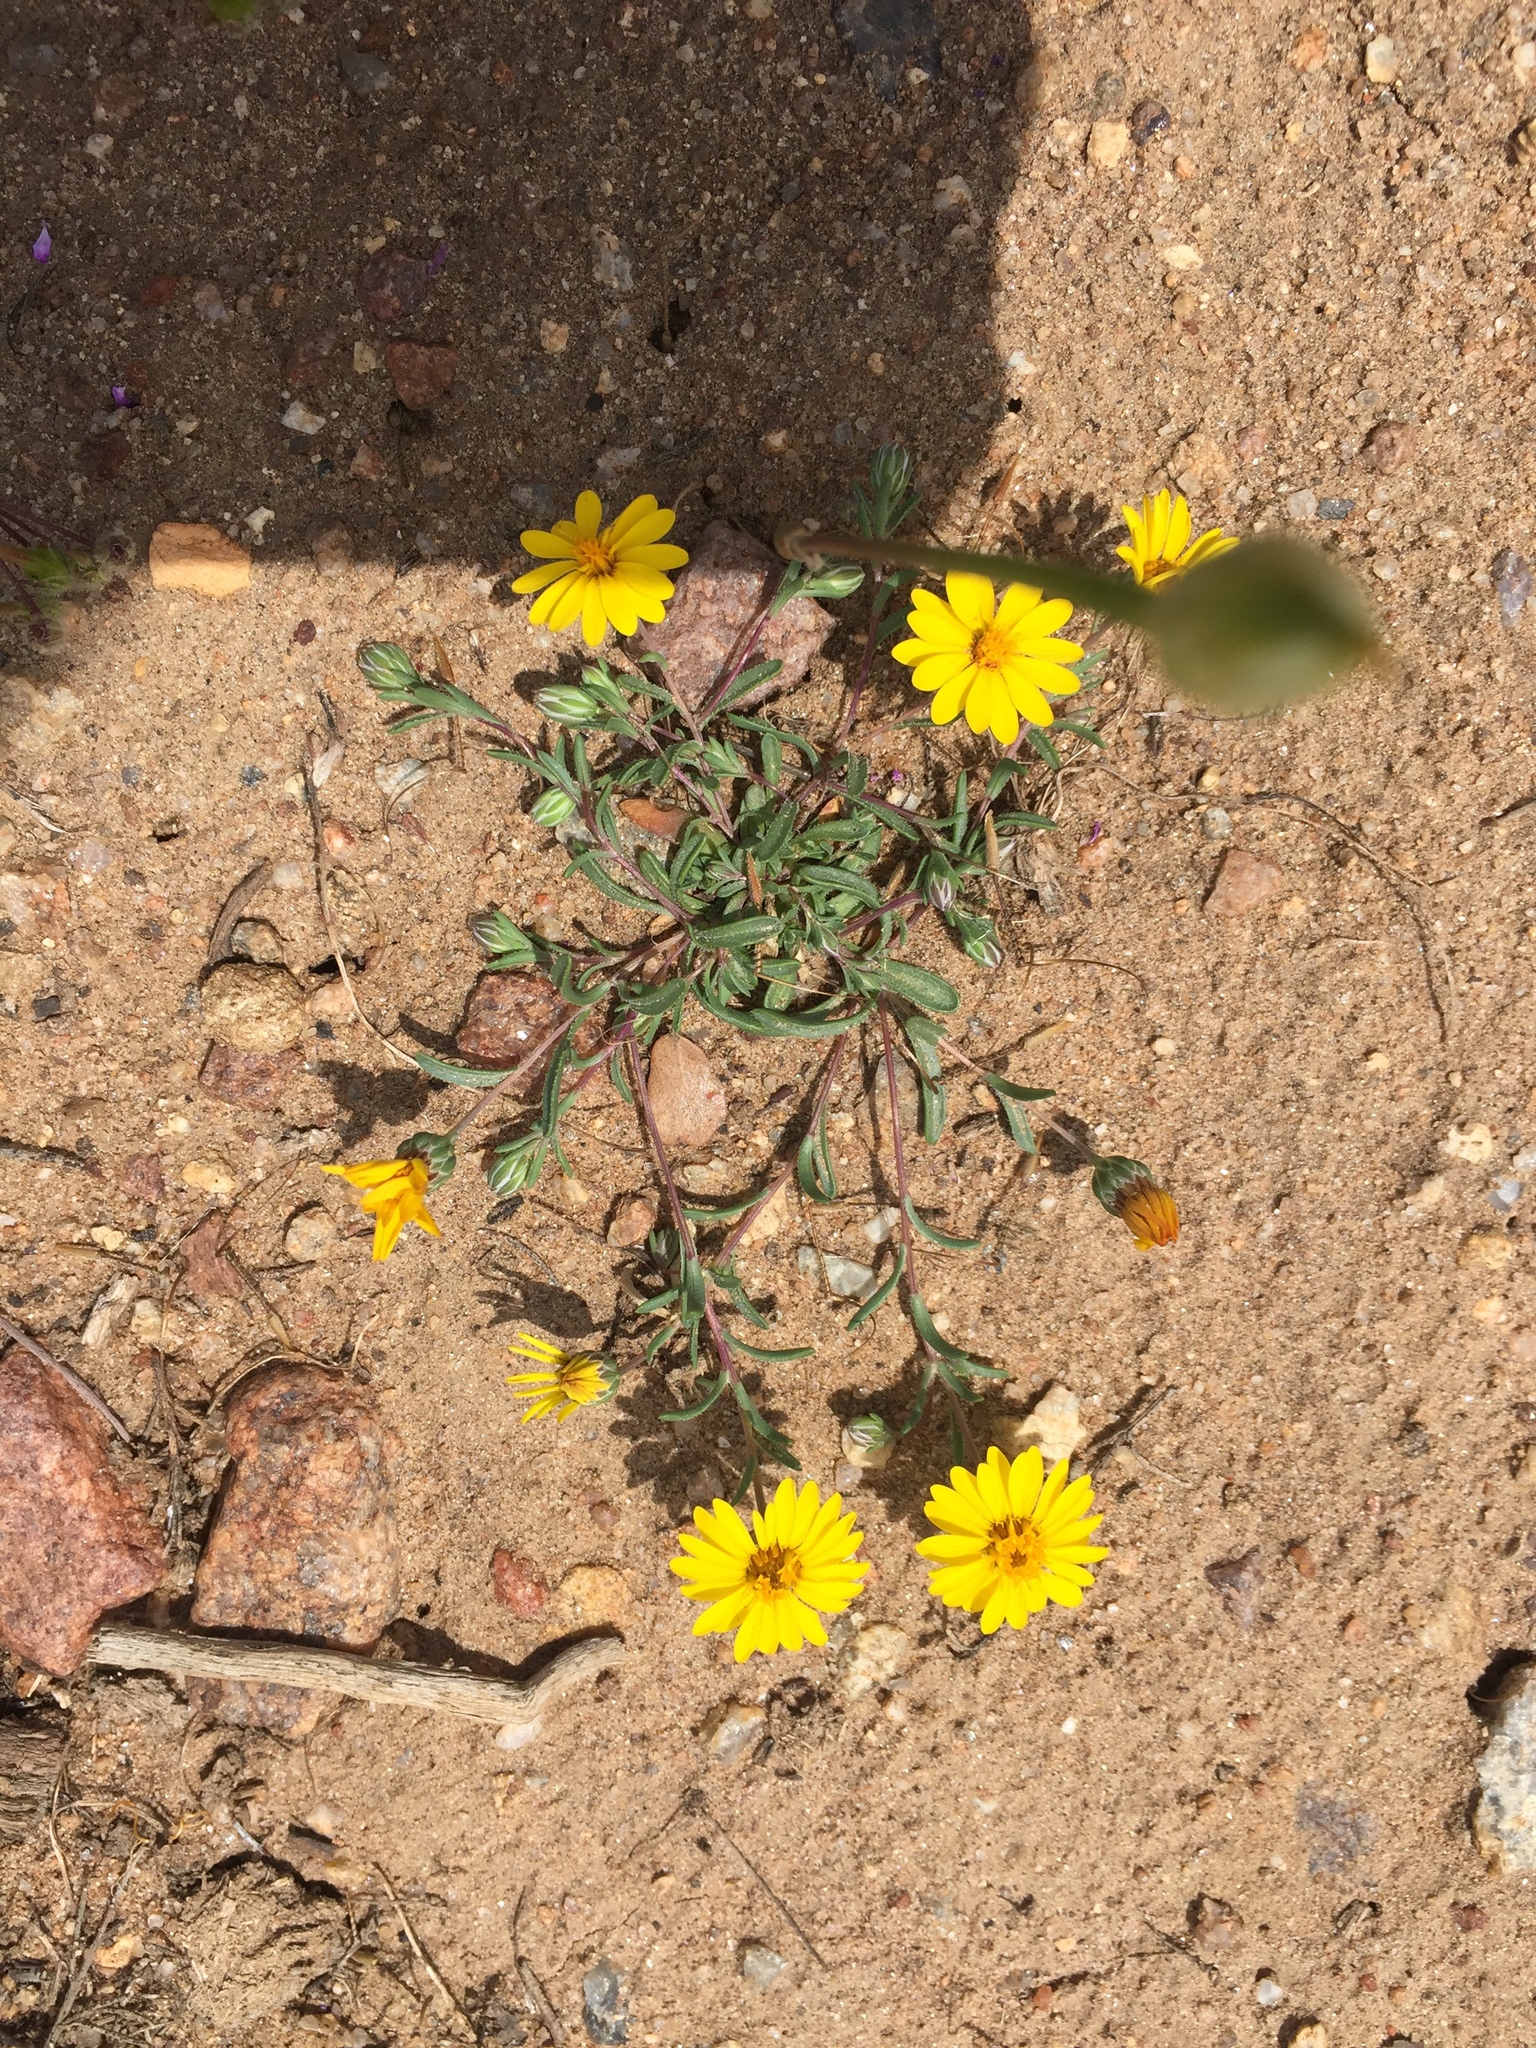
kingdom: Plantae
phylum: Tracheophyta
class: Magnoliopsida
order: Asterales
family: Asteraceae
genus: Pentachaeta
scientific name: Pentachaeta aurea
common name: Golden-ray pentachaeta
